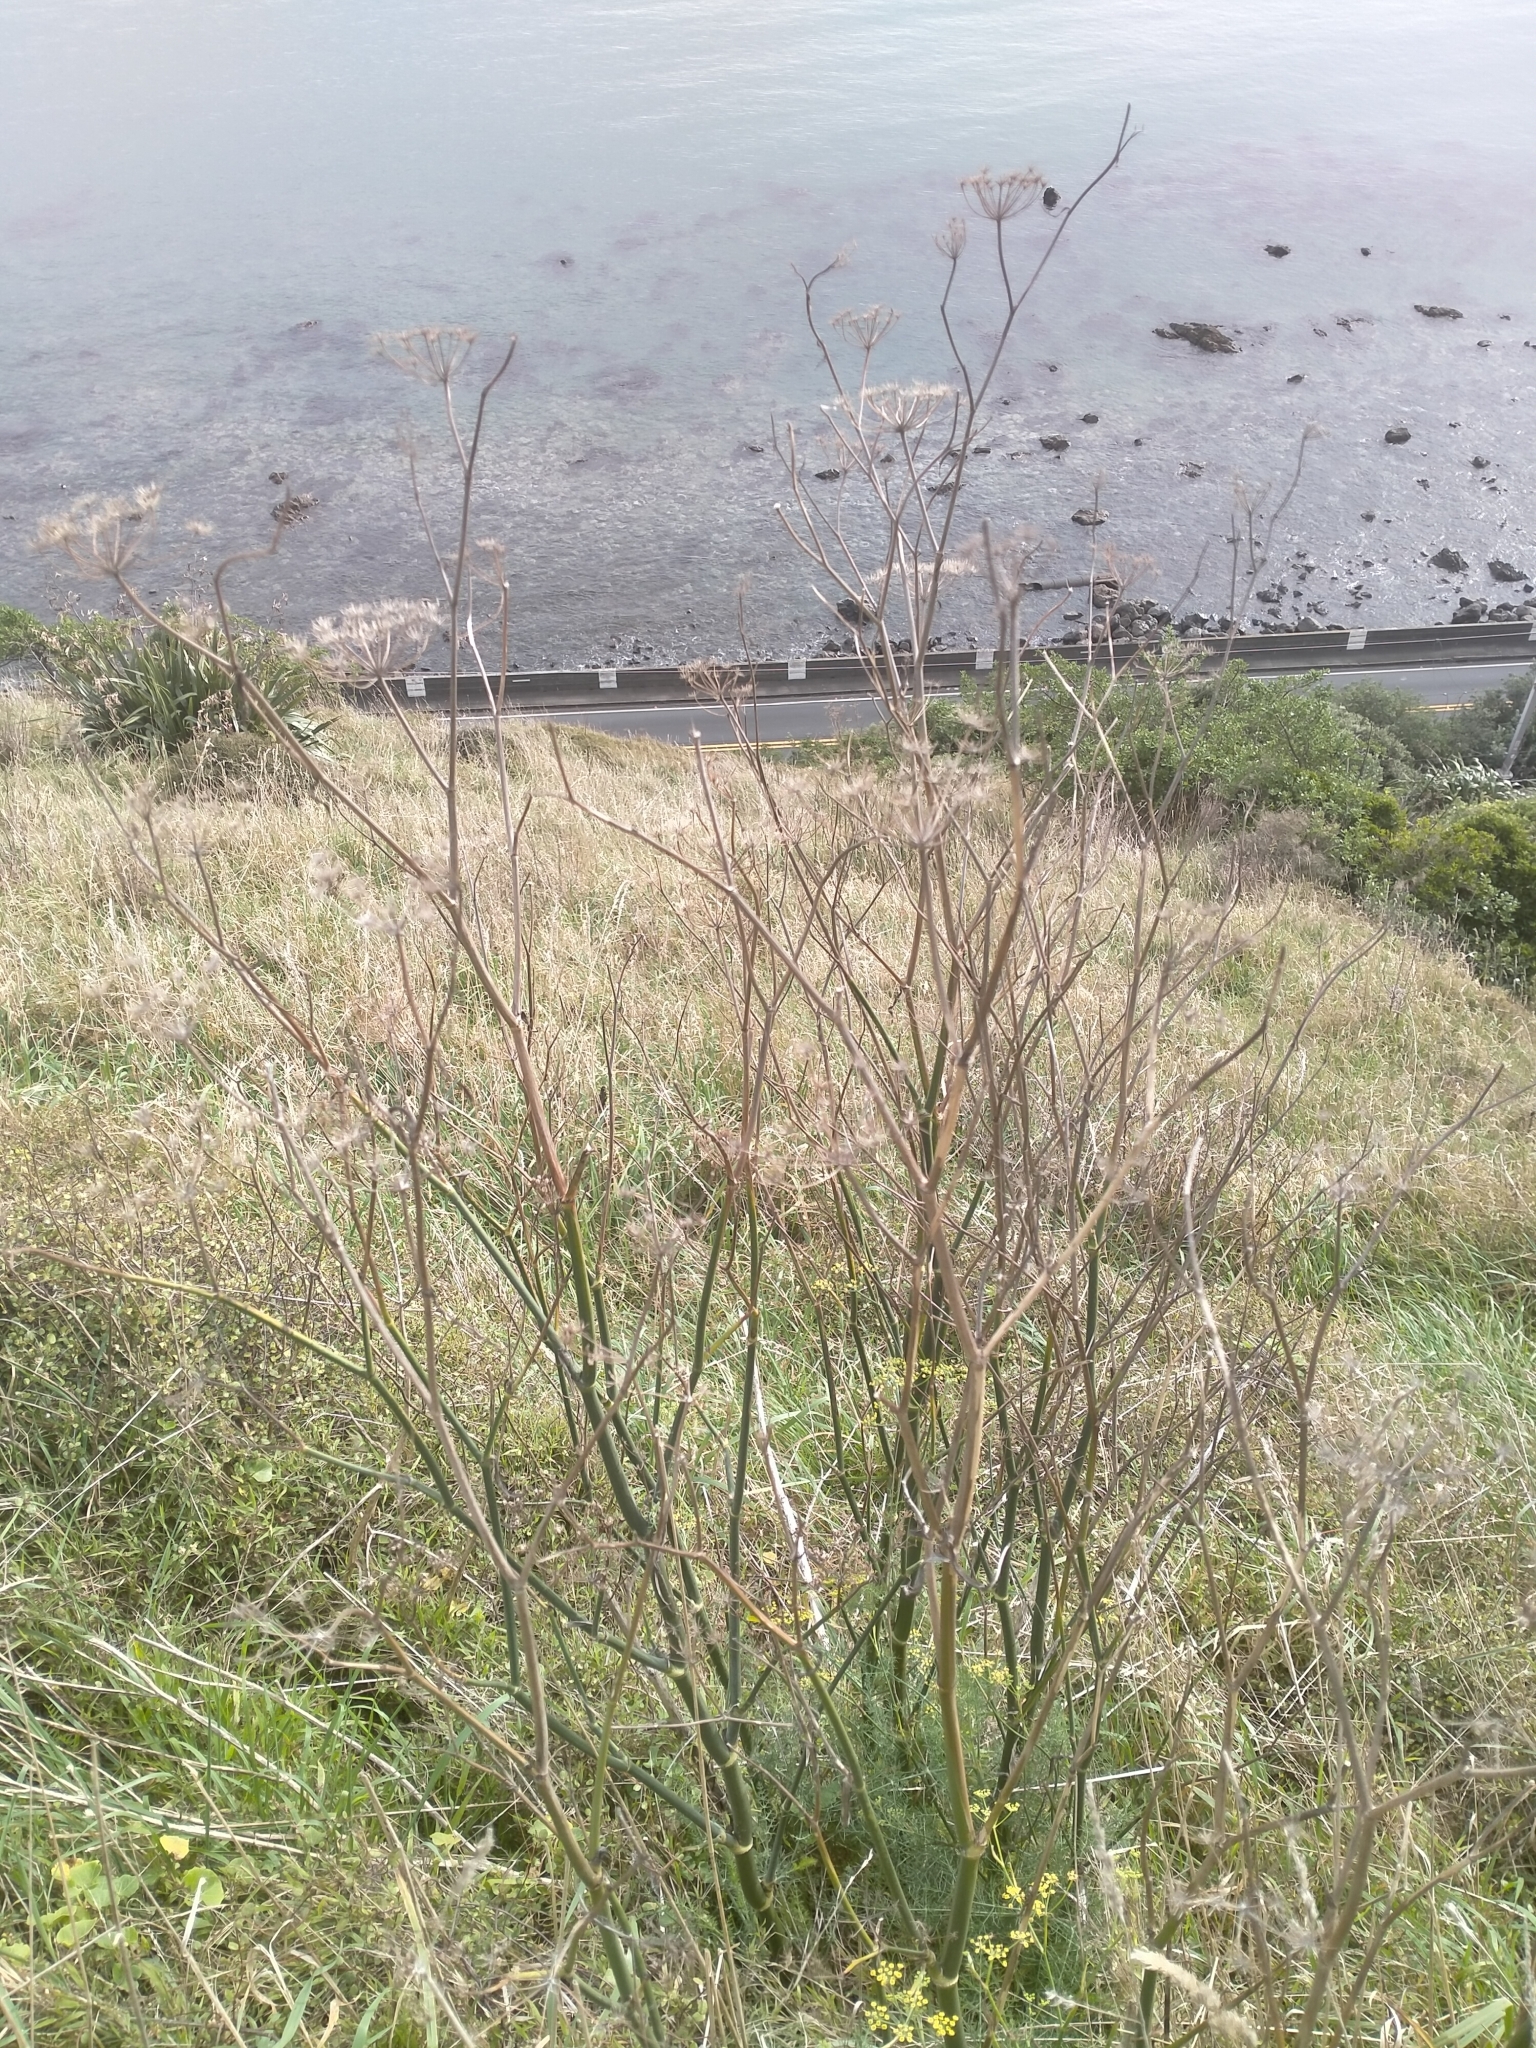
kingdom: Plantae
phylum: Tracheophyta
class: Magnoliopsida
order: Apiales
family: Apiaceae
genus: Foeniculum
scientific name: Foeniculum vulgare
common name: Fennel
